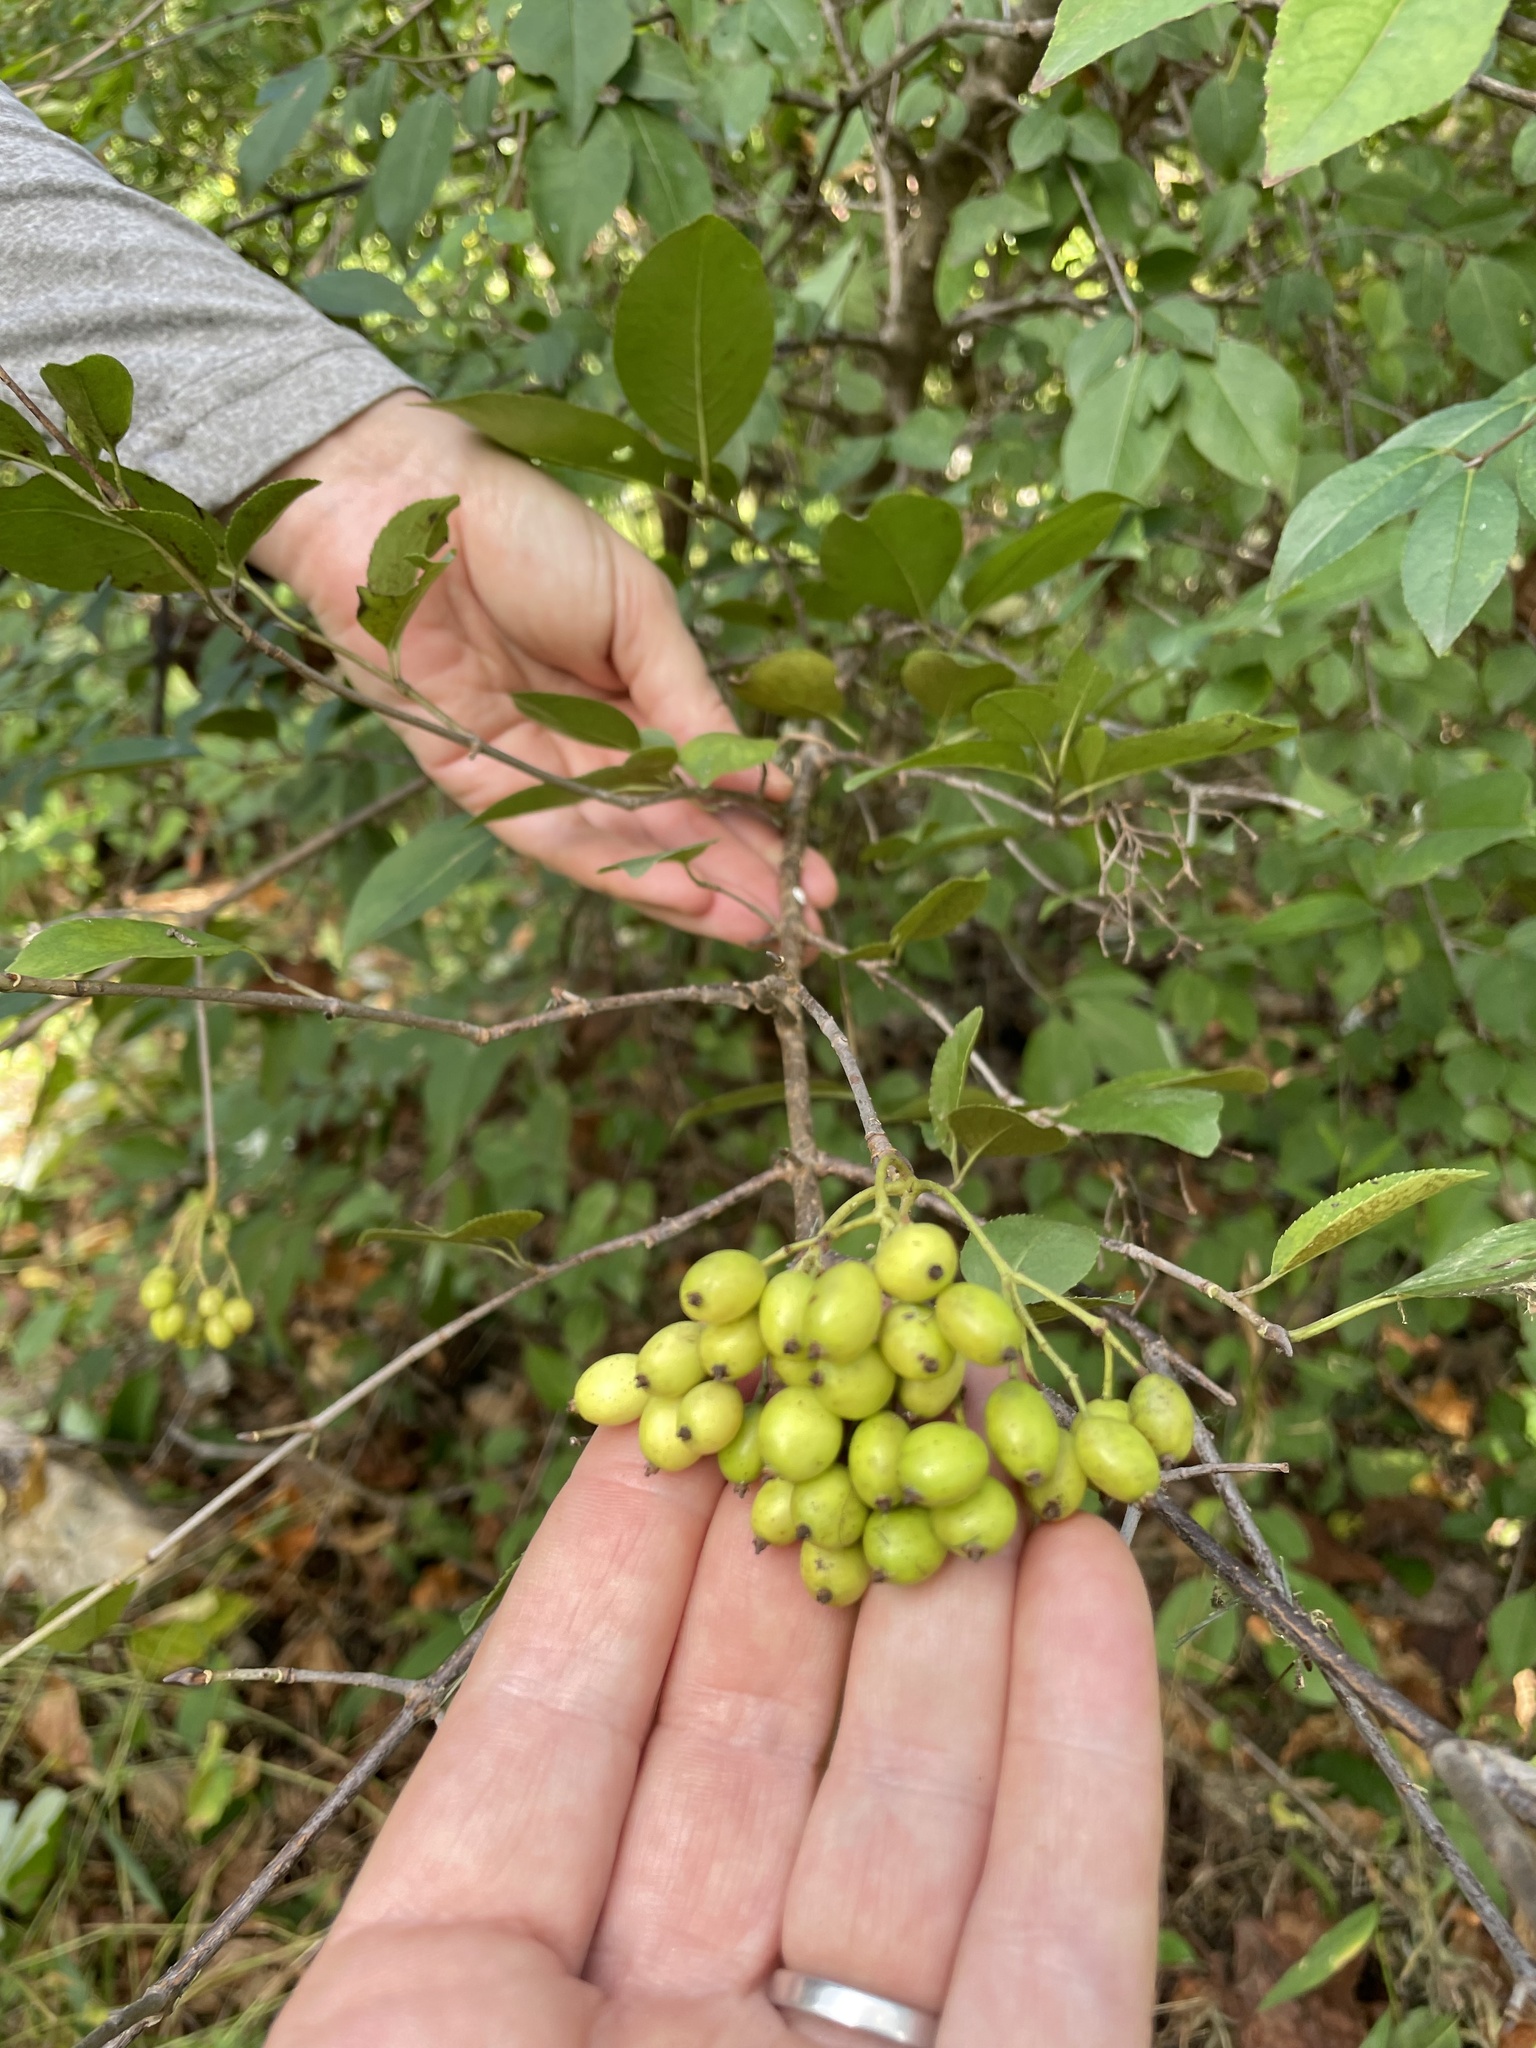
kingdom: Plantae
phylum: Tracheophyta
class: Magnoliopsida
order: Dipsacales
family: Viburnaceae
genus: Viburnum
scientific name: Viburnum prunifolium
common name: Black haw
